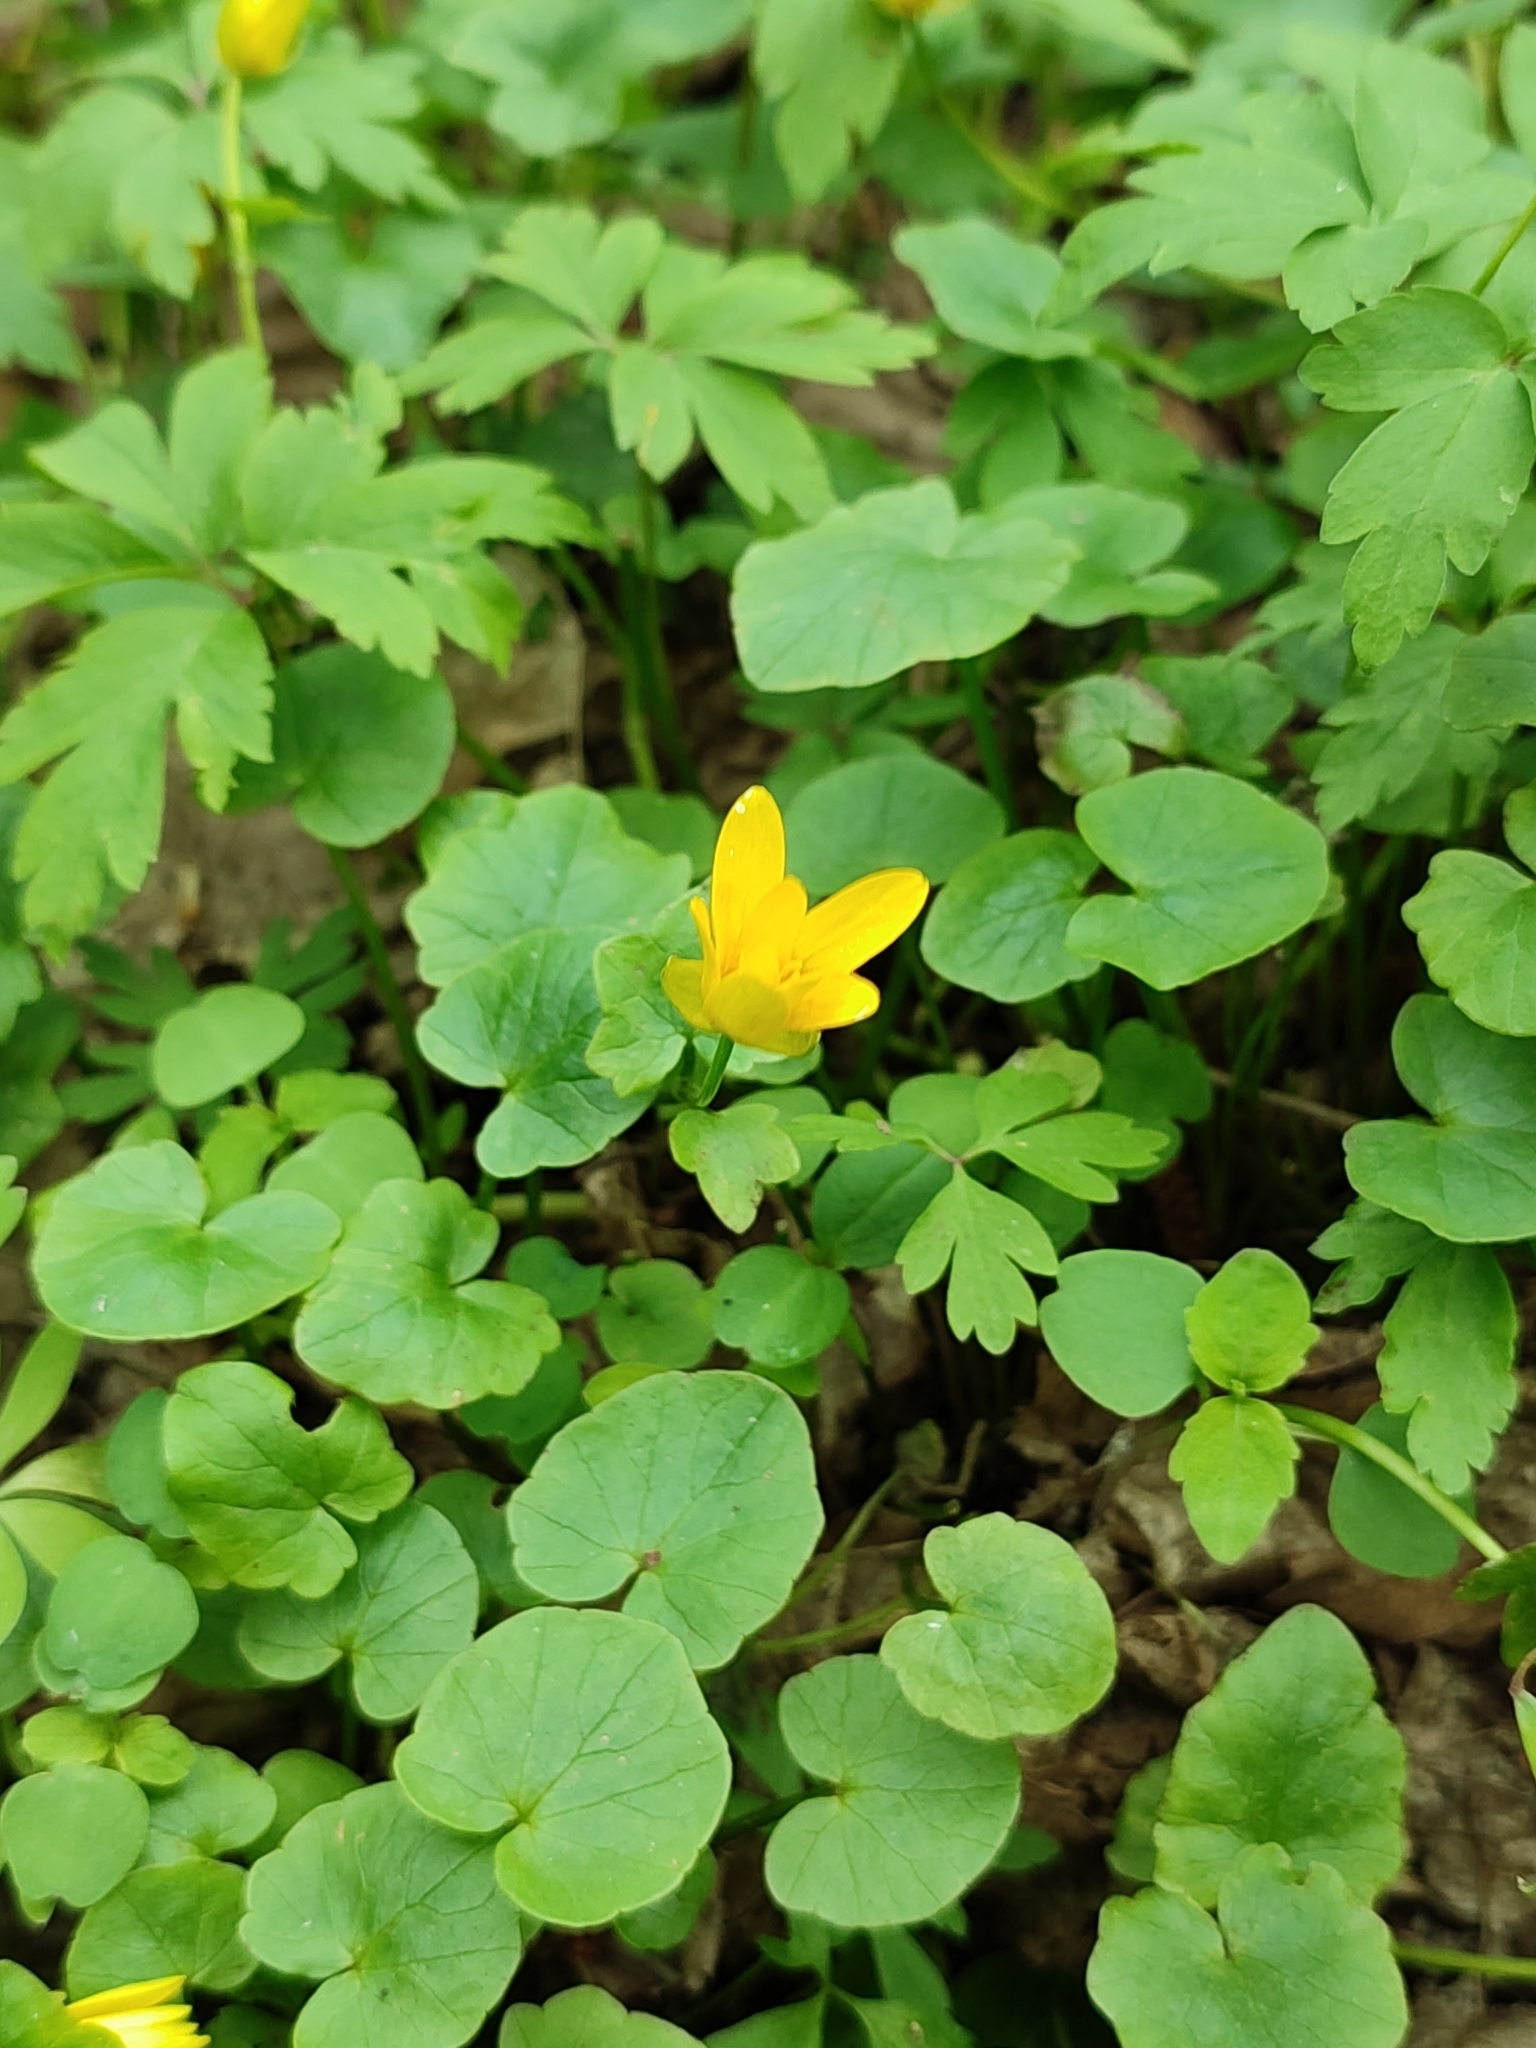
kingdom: Plantae
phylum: Tracheophyta
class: Magnoliopsida
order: Ranunculales
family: Ranunculaceae
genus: Ficaria
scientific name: Ficaria verna
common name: Lesser celandine
